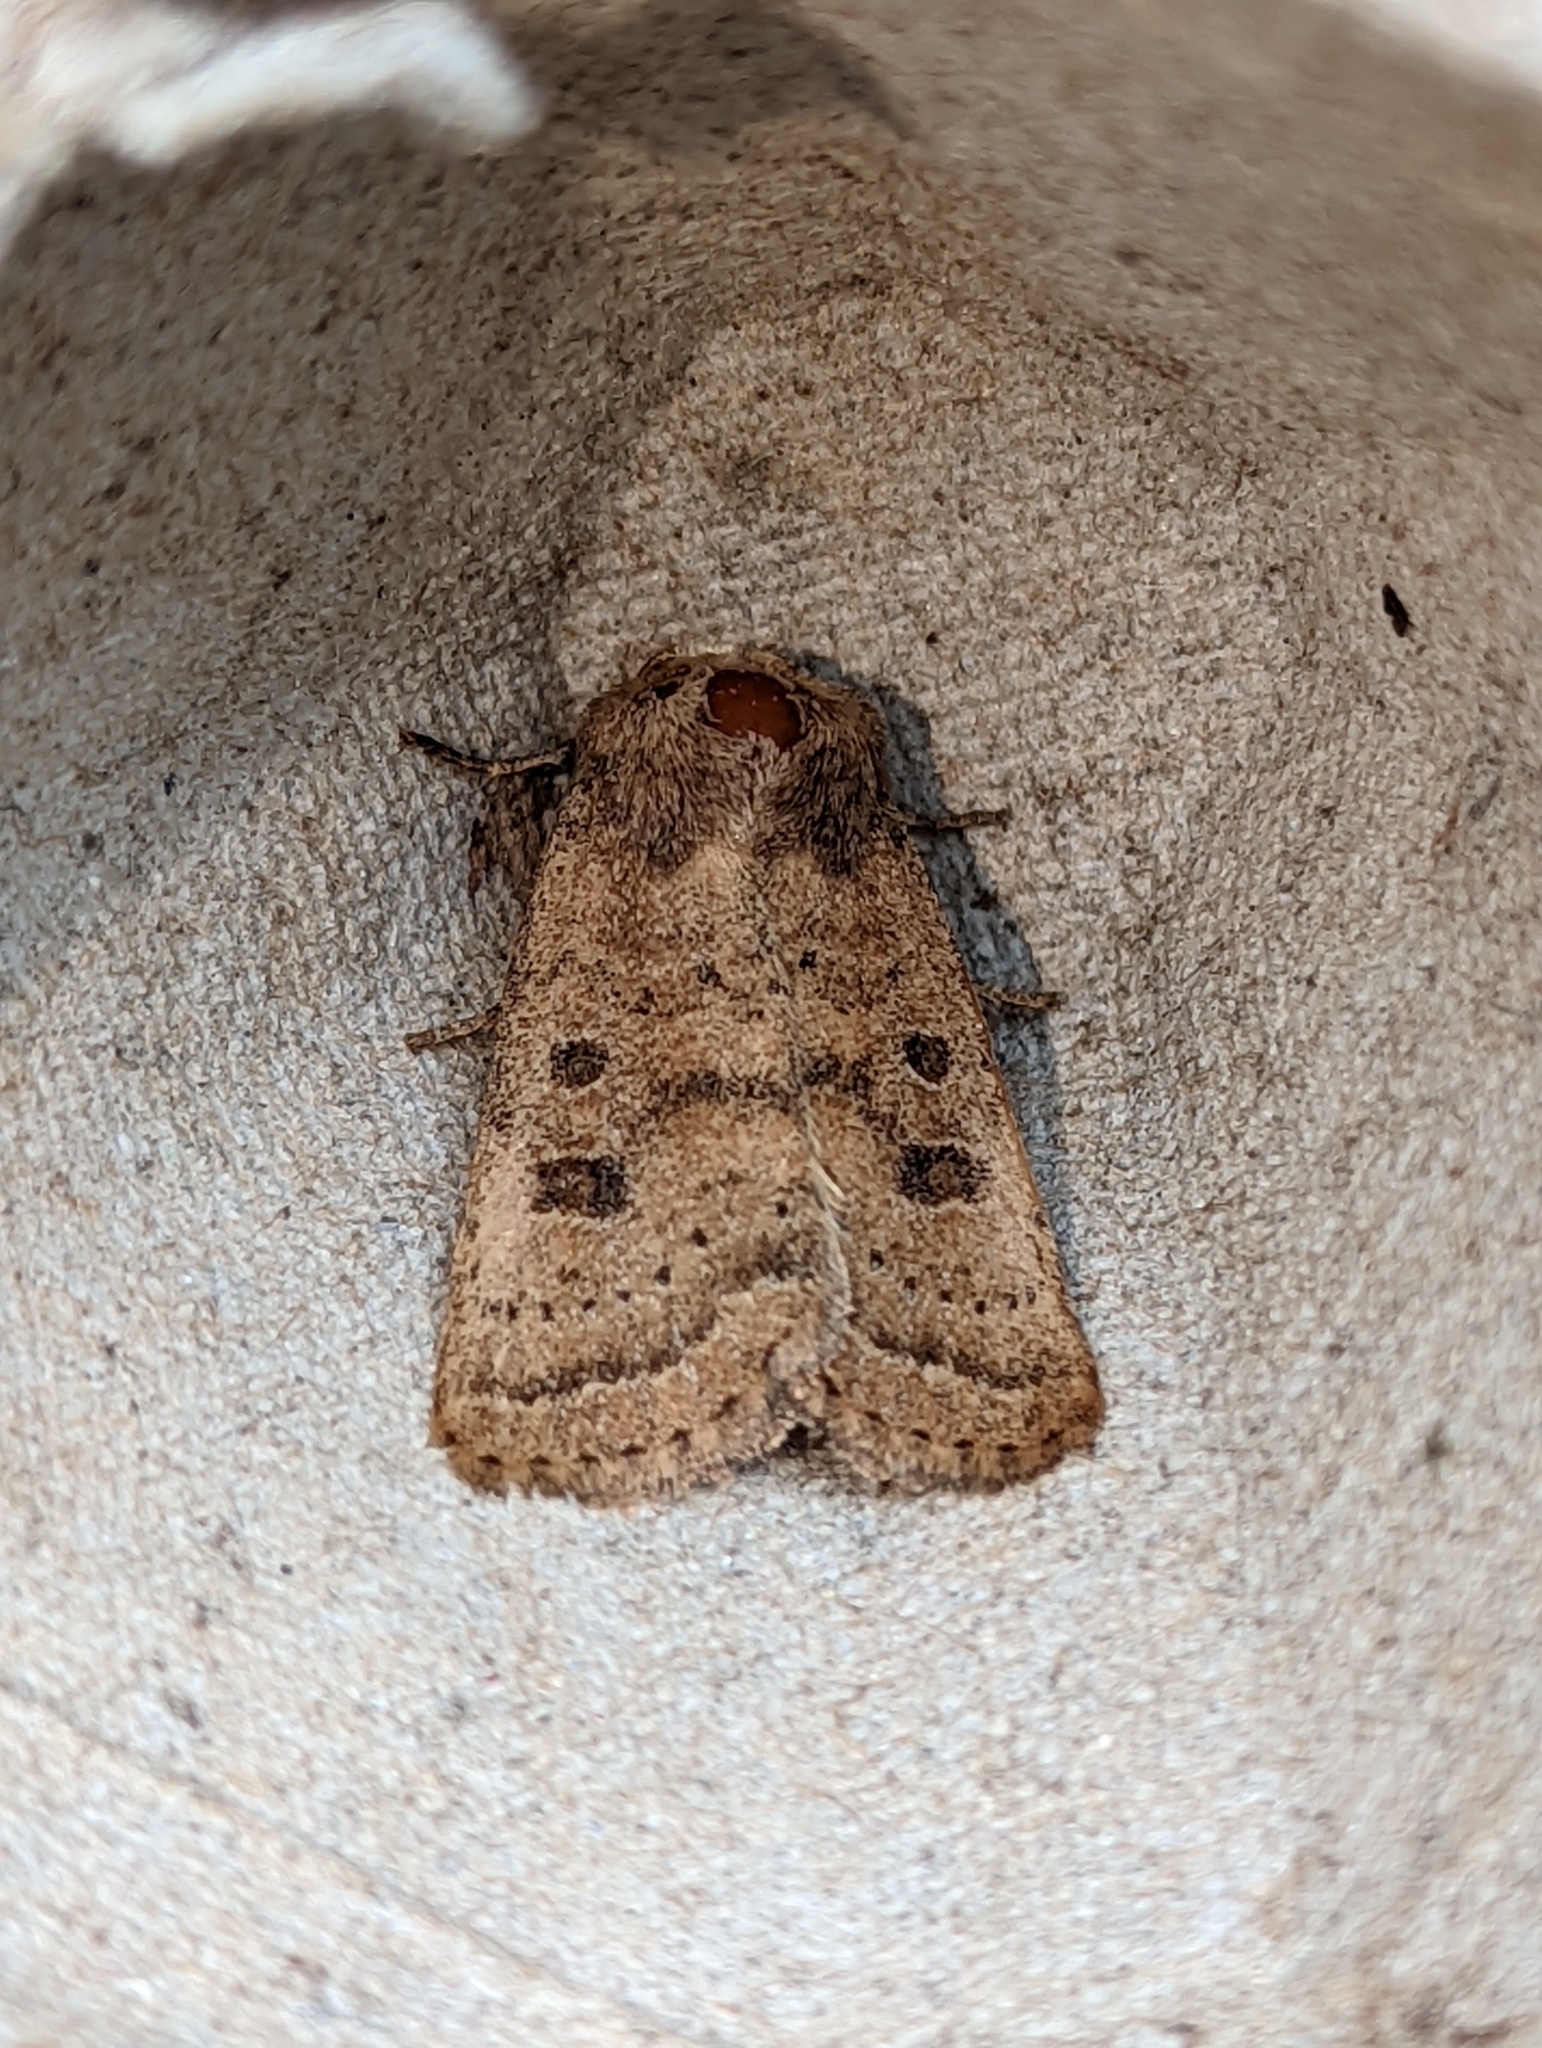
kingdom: Animalia
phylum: Arthropoda
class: Insecta
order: Lepidoptera
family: Noctuidae
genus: Hoplodrina
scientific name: Hoplodrina octogenaria
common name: Uncertain
